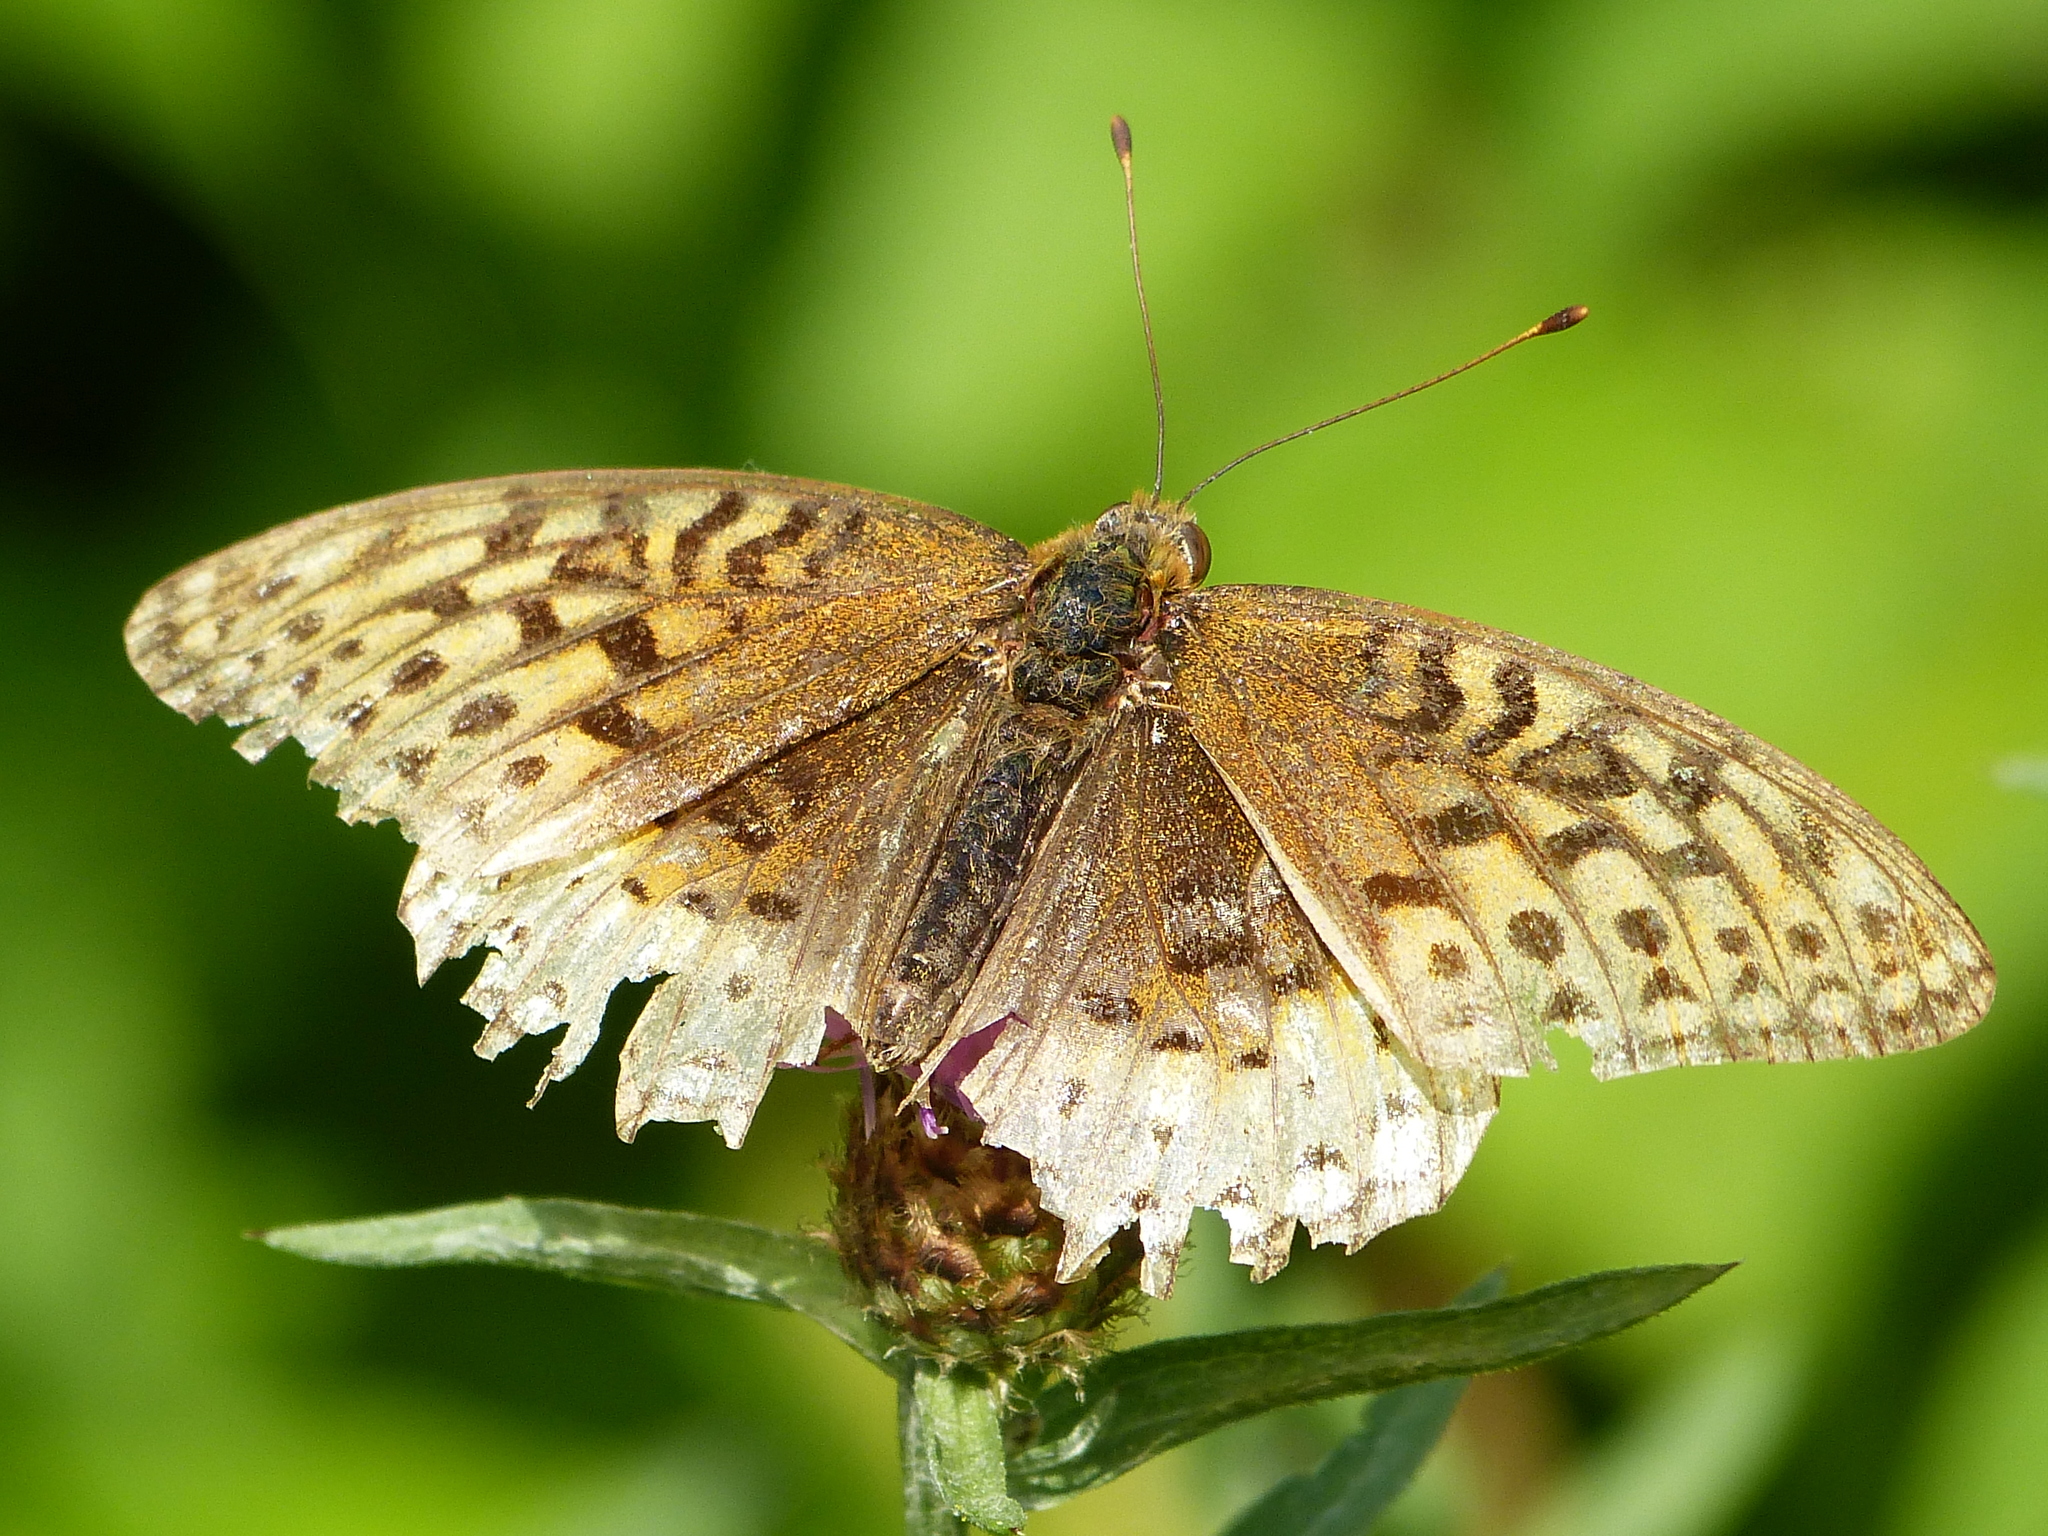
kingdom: Animalia
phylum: Arthropoda
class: Insecta
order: Lepidoptera
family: Nymphalidae
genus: Speyeria
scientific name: Speyeria cybele
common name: Great spangled fritillary
